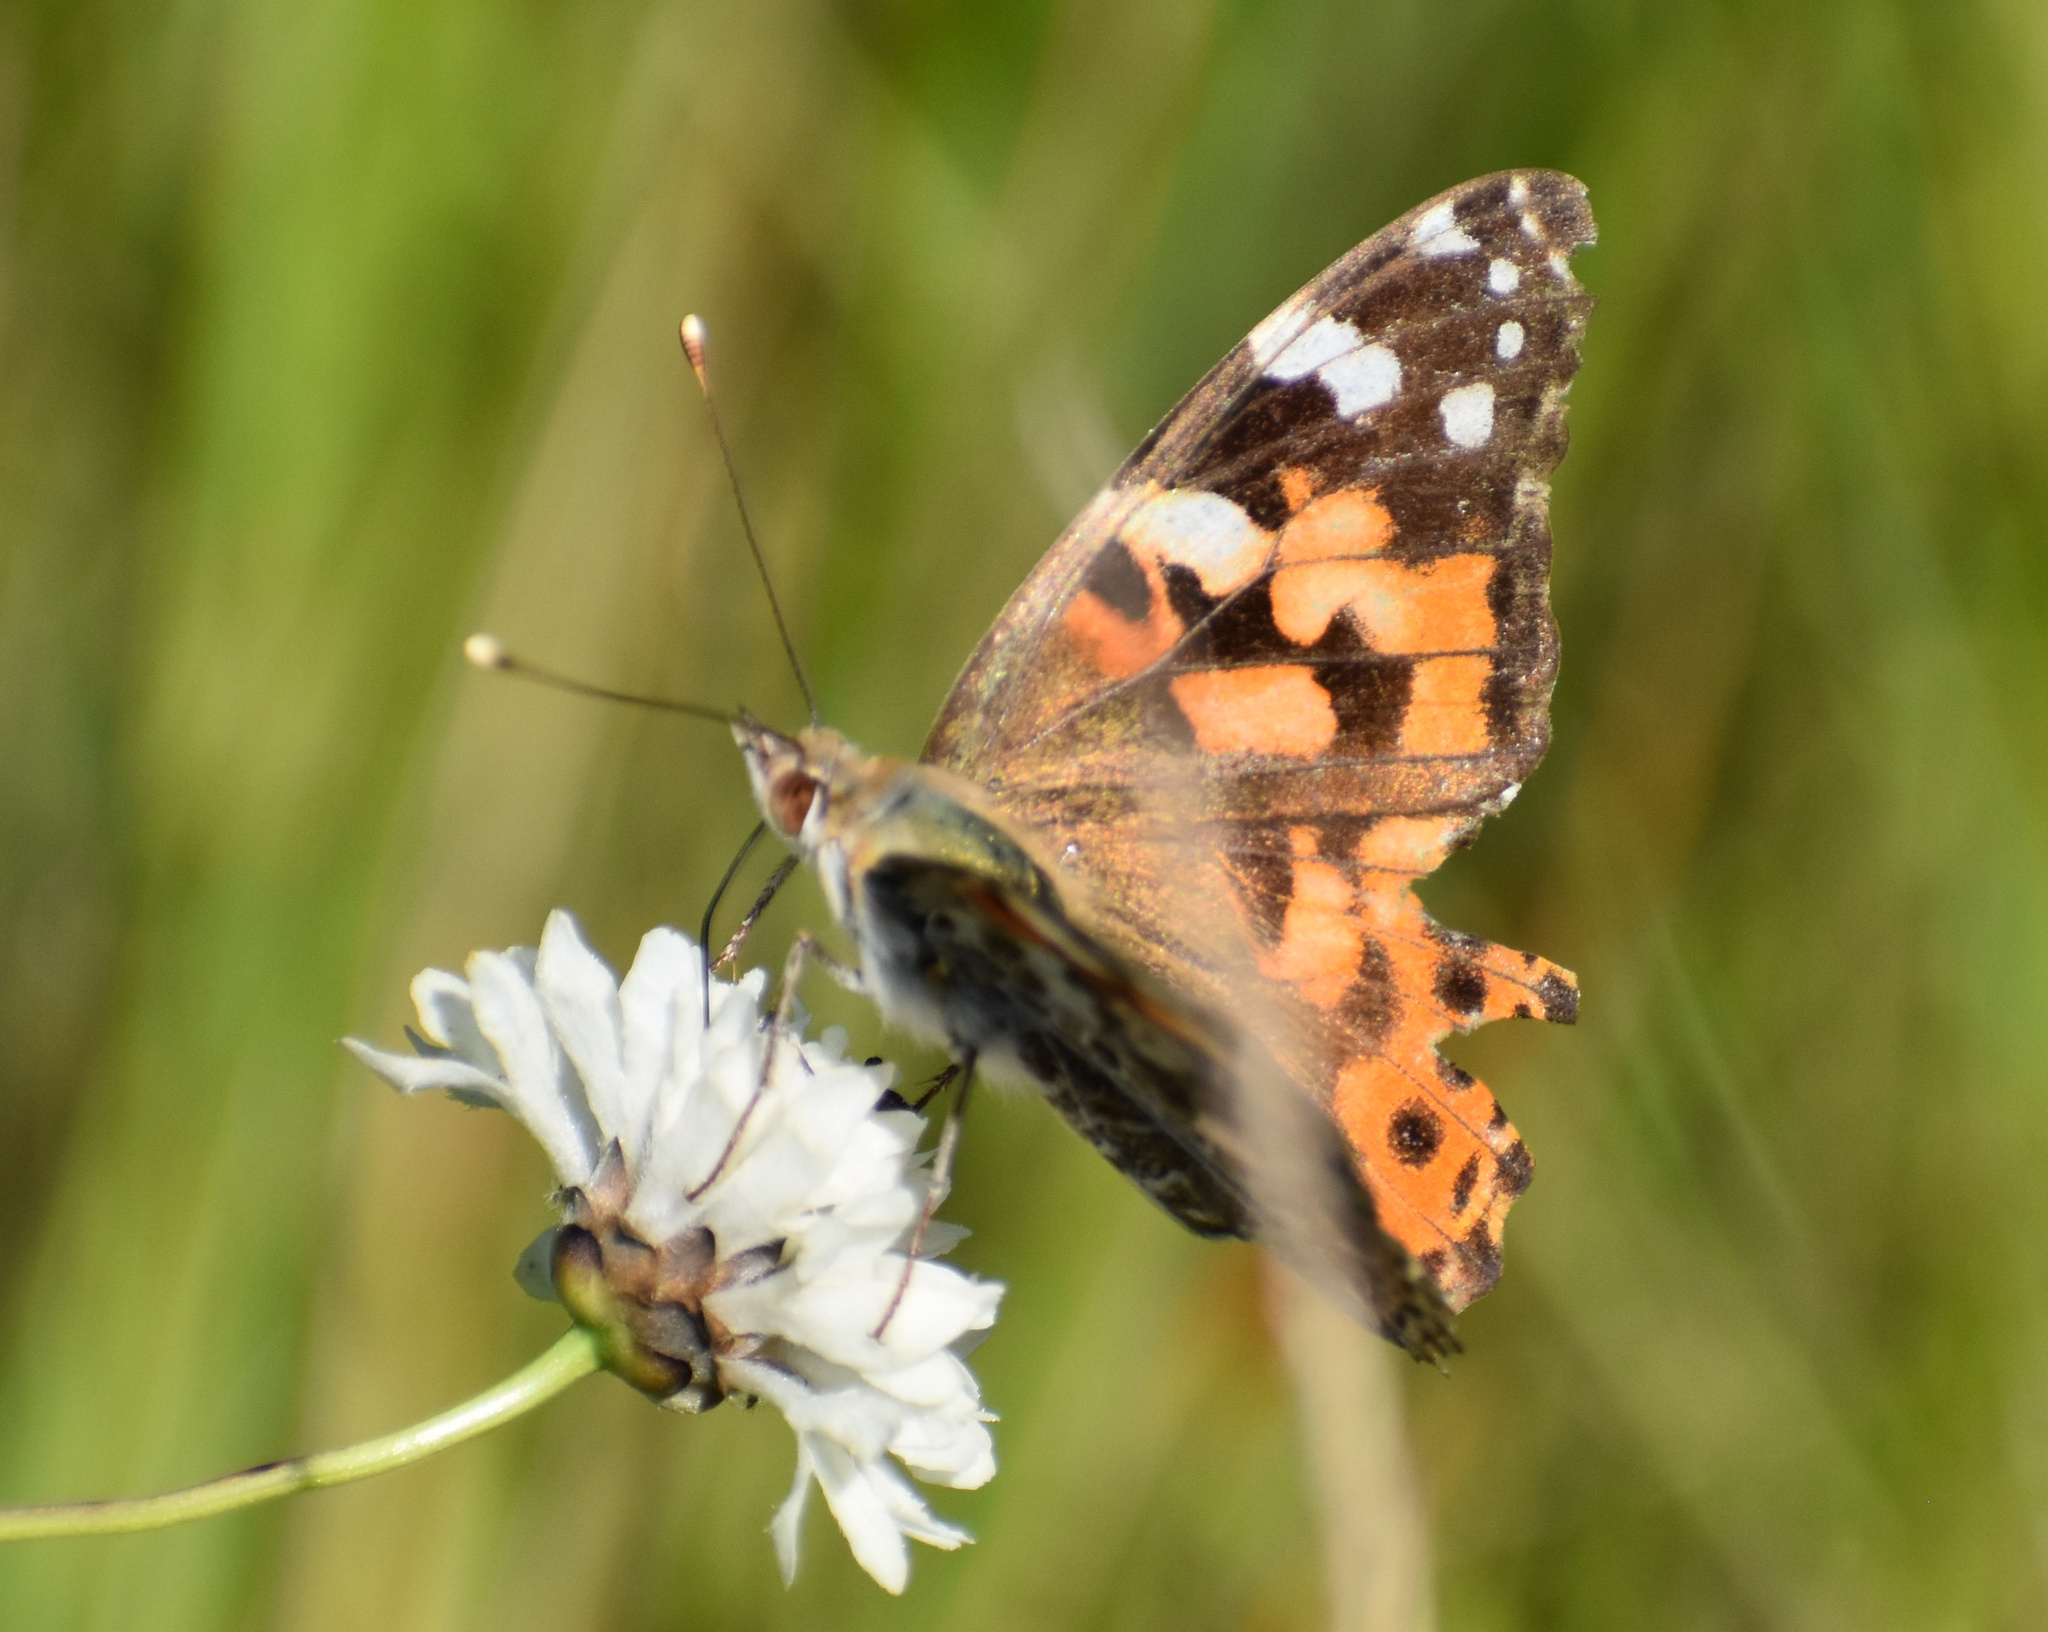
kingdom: Animalia
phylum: Arthropoda
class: Insecta
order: Lepidoptera
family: Nymphalidae
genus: Vanessa
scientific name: Vanessa cardui
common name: Painted lady
